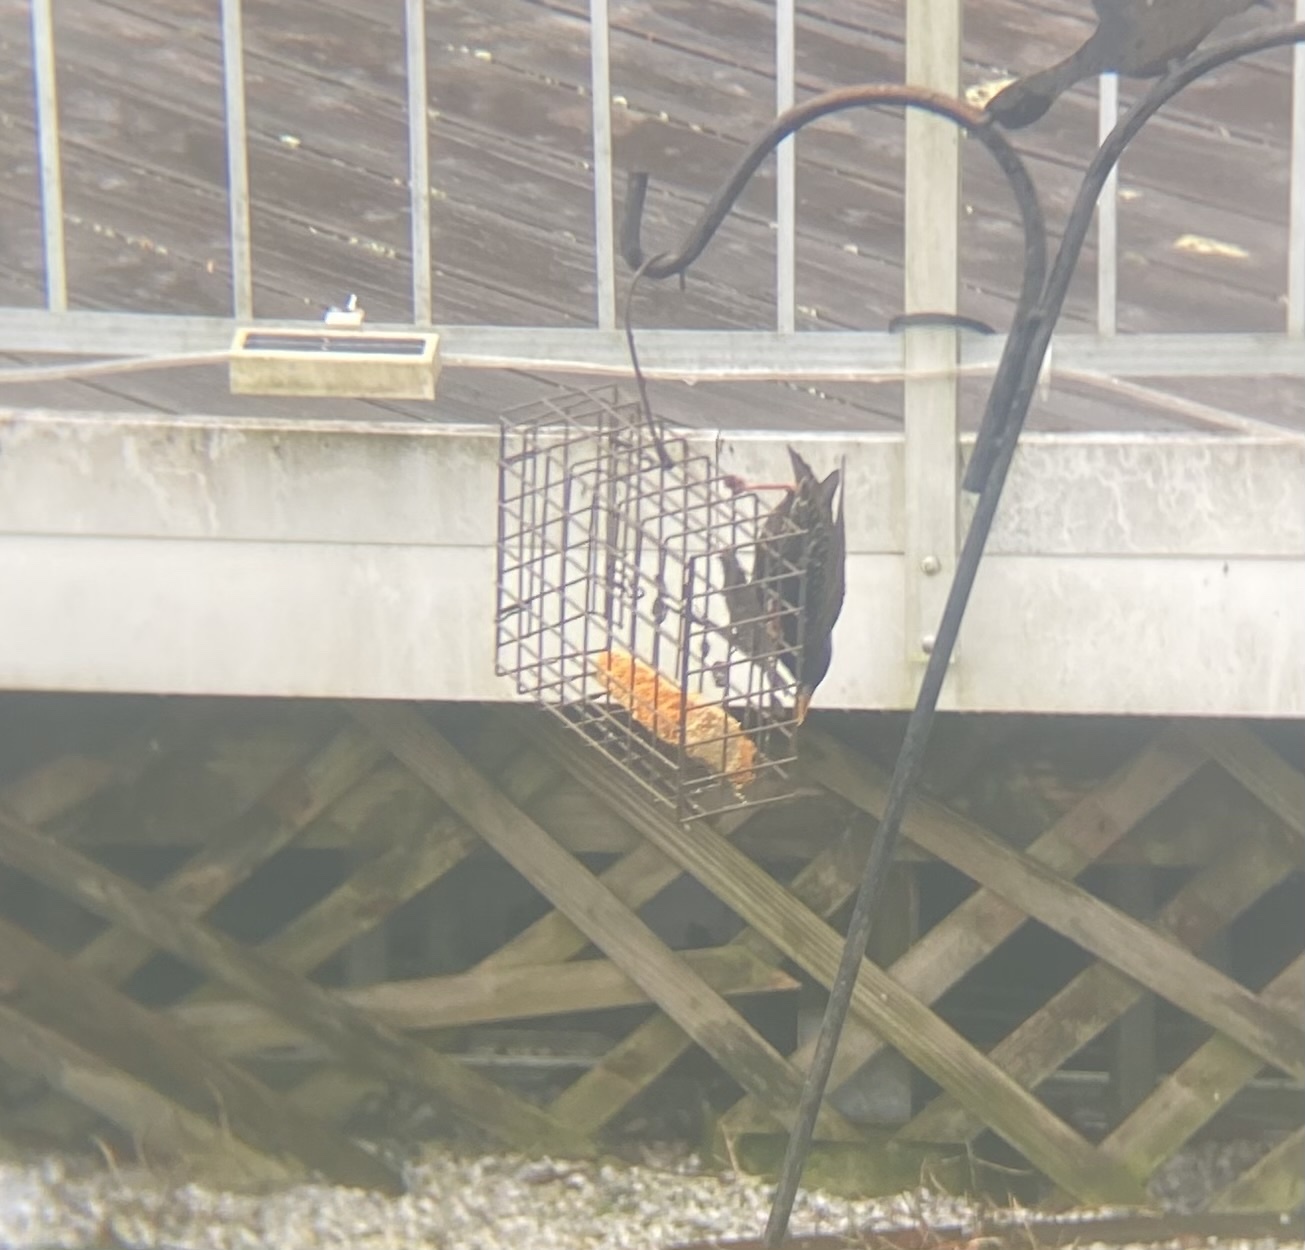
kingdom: Animalia
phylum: Chordata
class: Aves
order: Passeriformes
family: Sturnidae
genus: Sturnus
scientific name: Sturnus vulgaris
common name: Common starling
